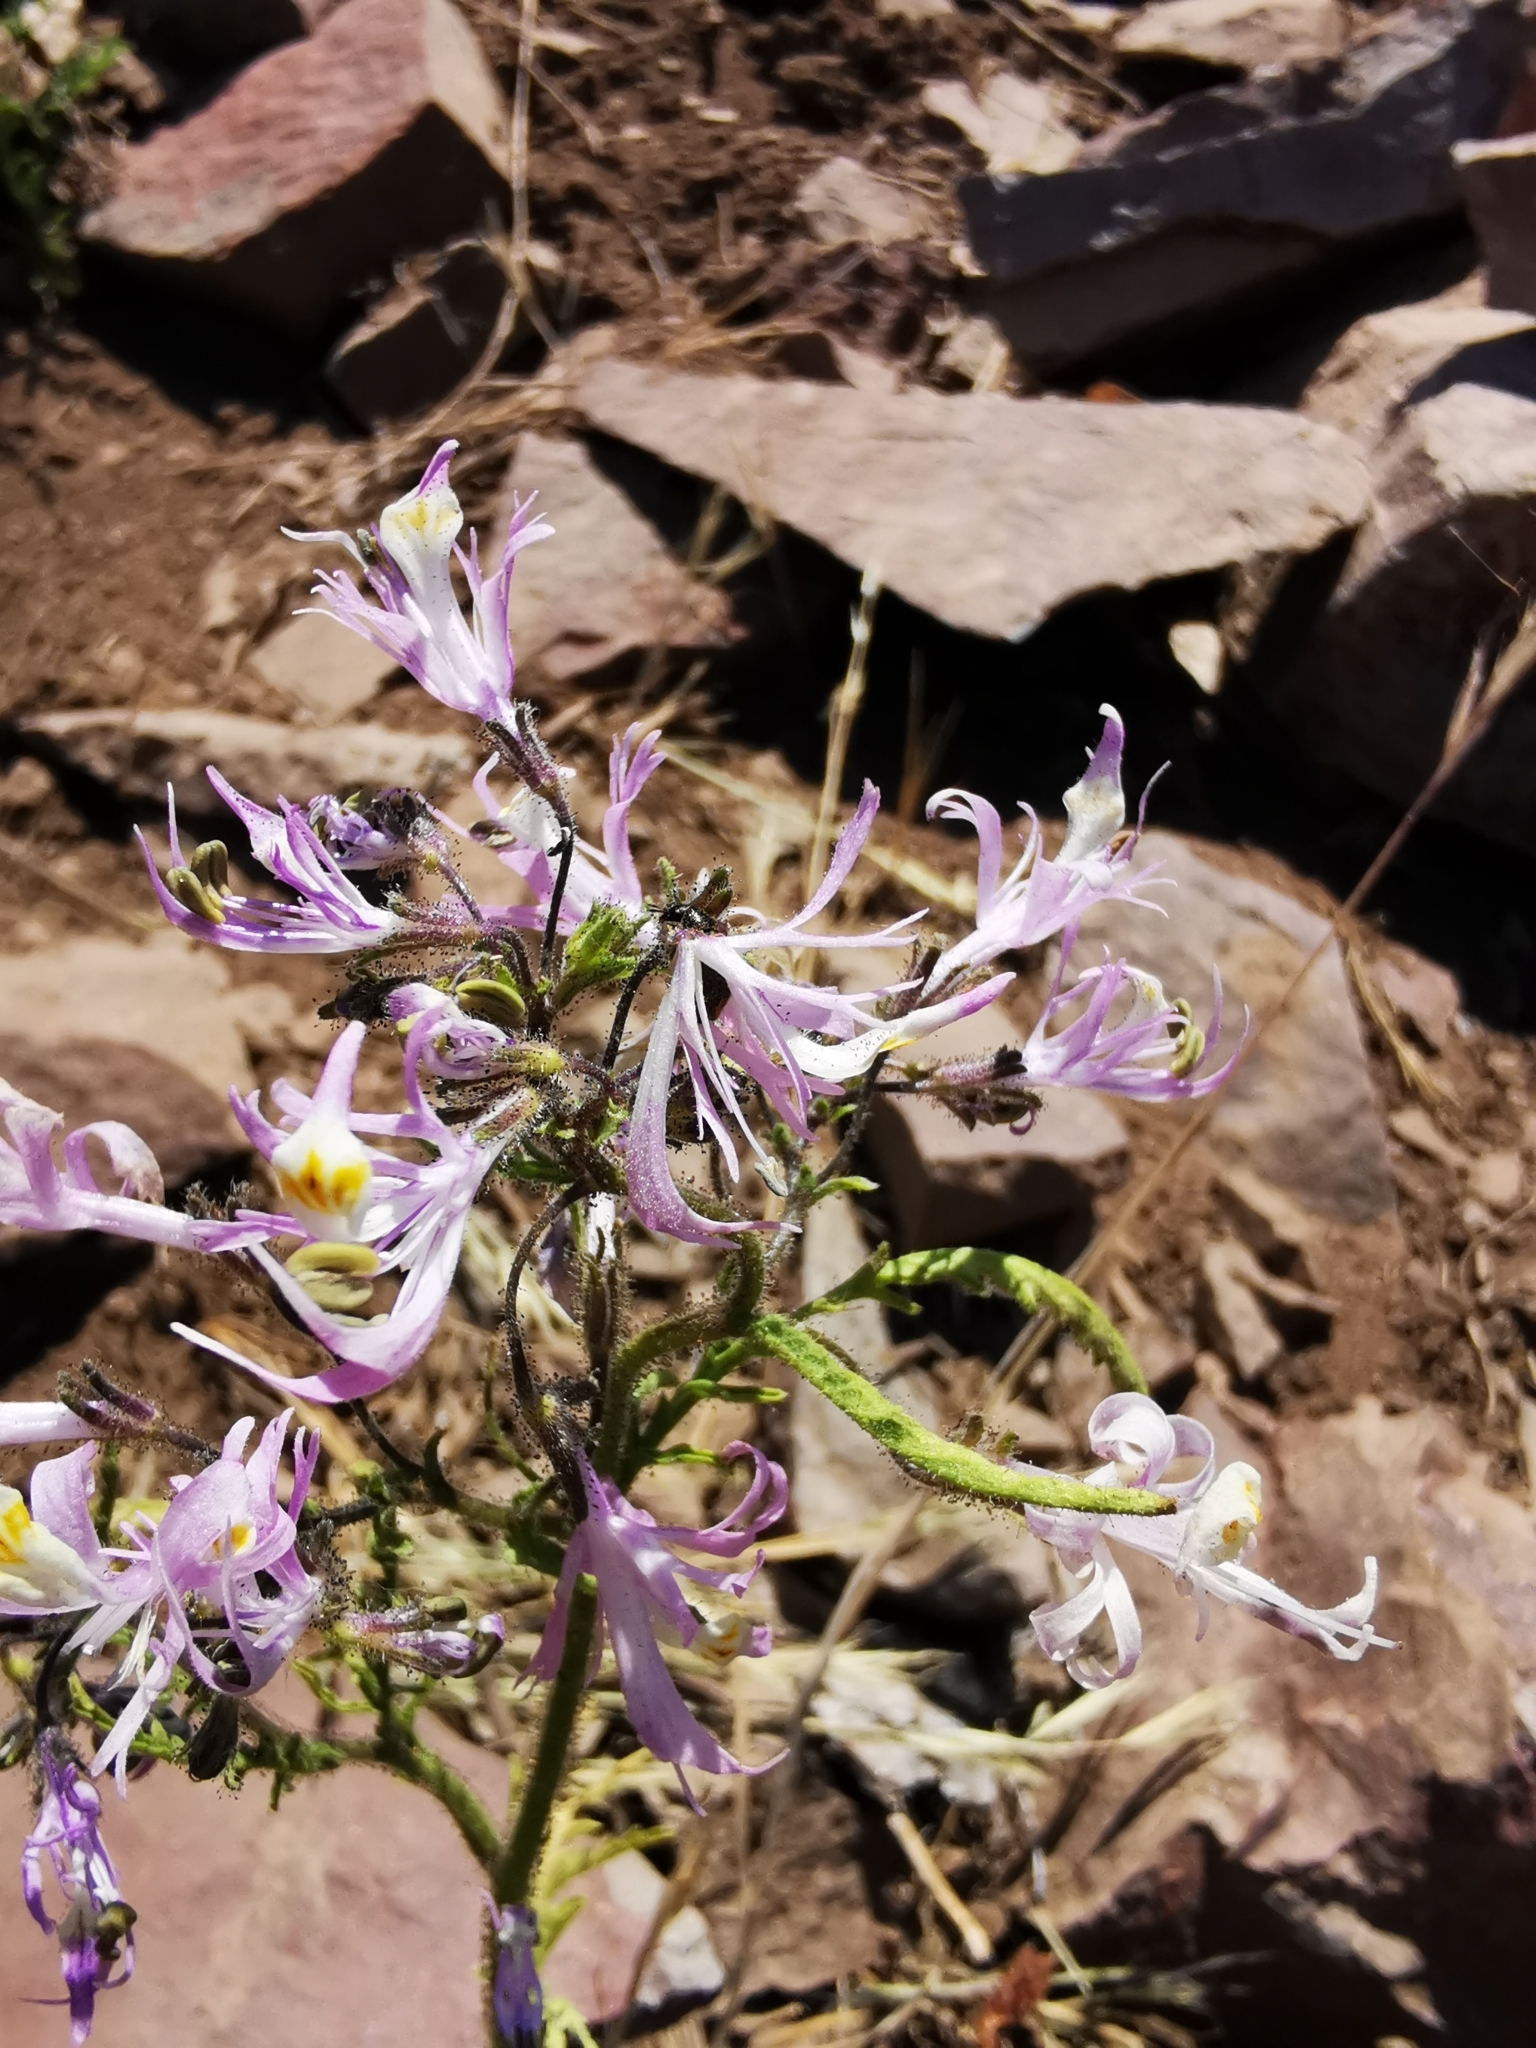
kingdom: Plantae
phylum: Tracheophyta
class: Magnoliopsida
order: Solanales
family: Solanaceae
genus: Schizanthus
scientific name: Schizanthus hookeri
